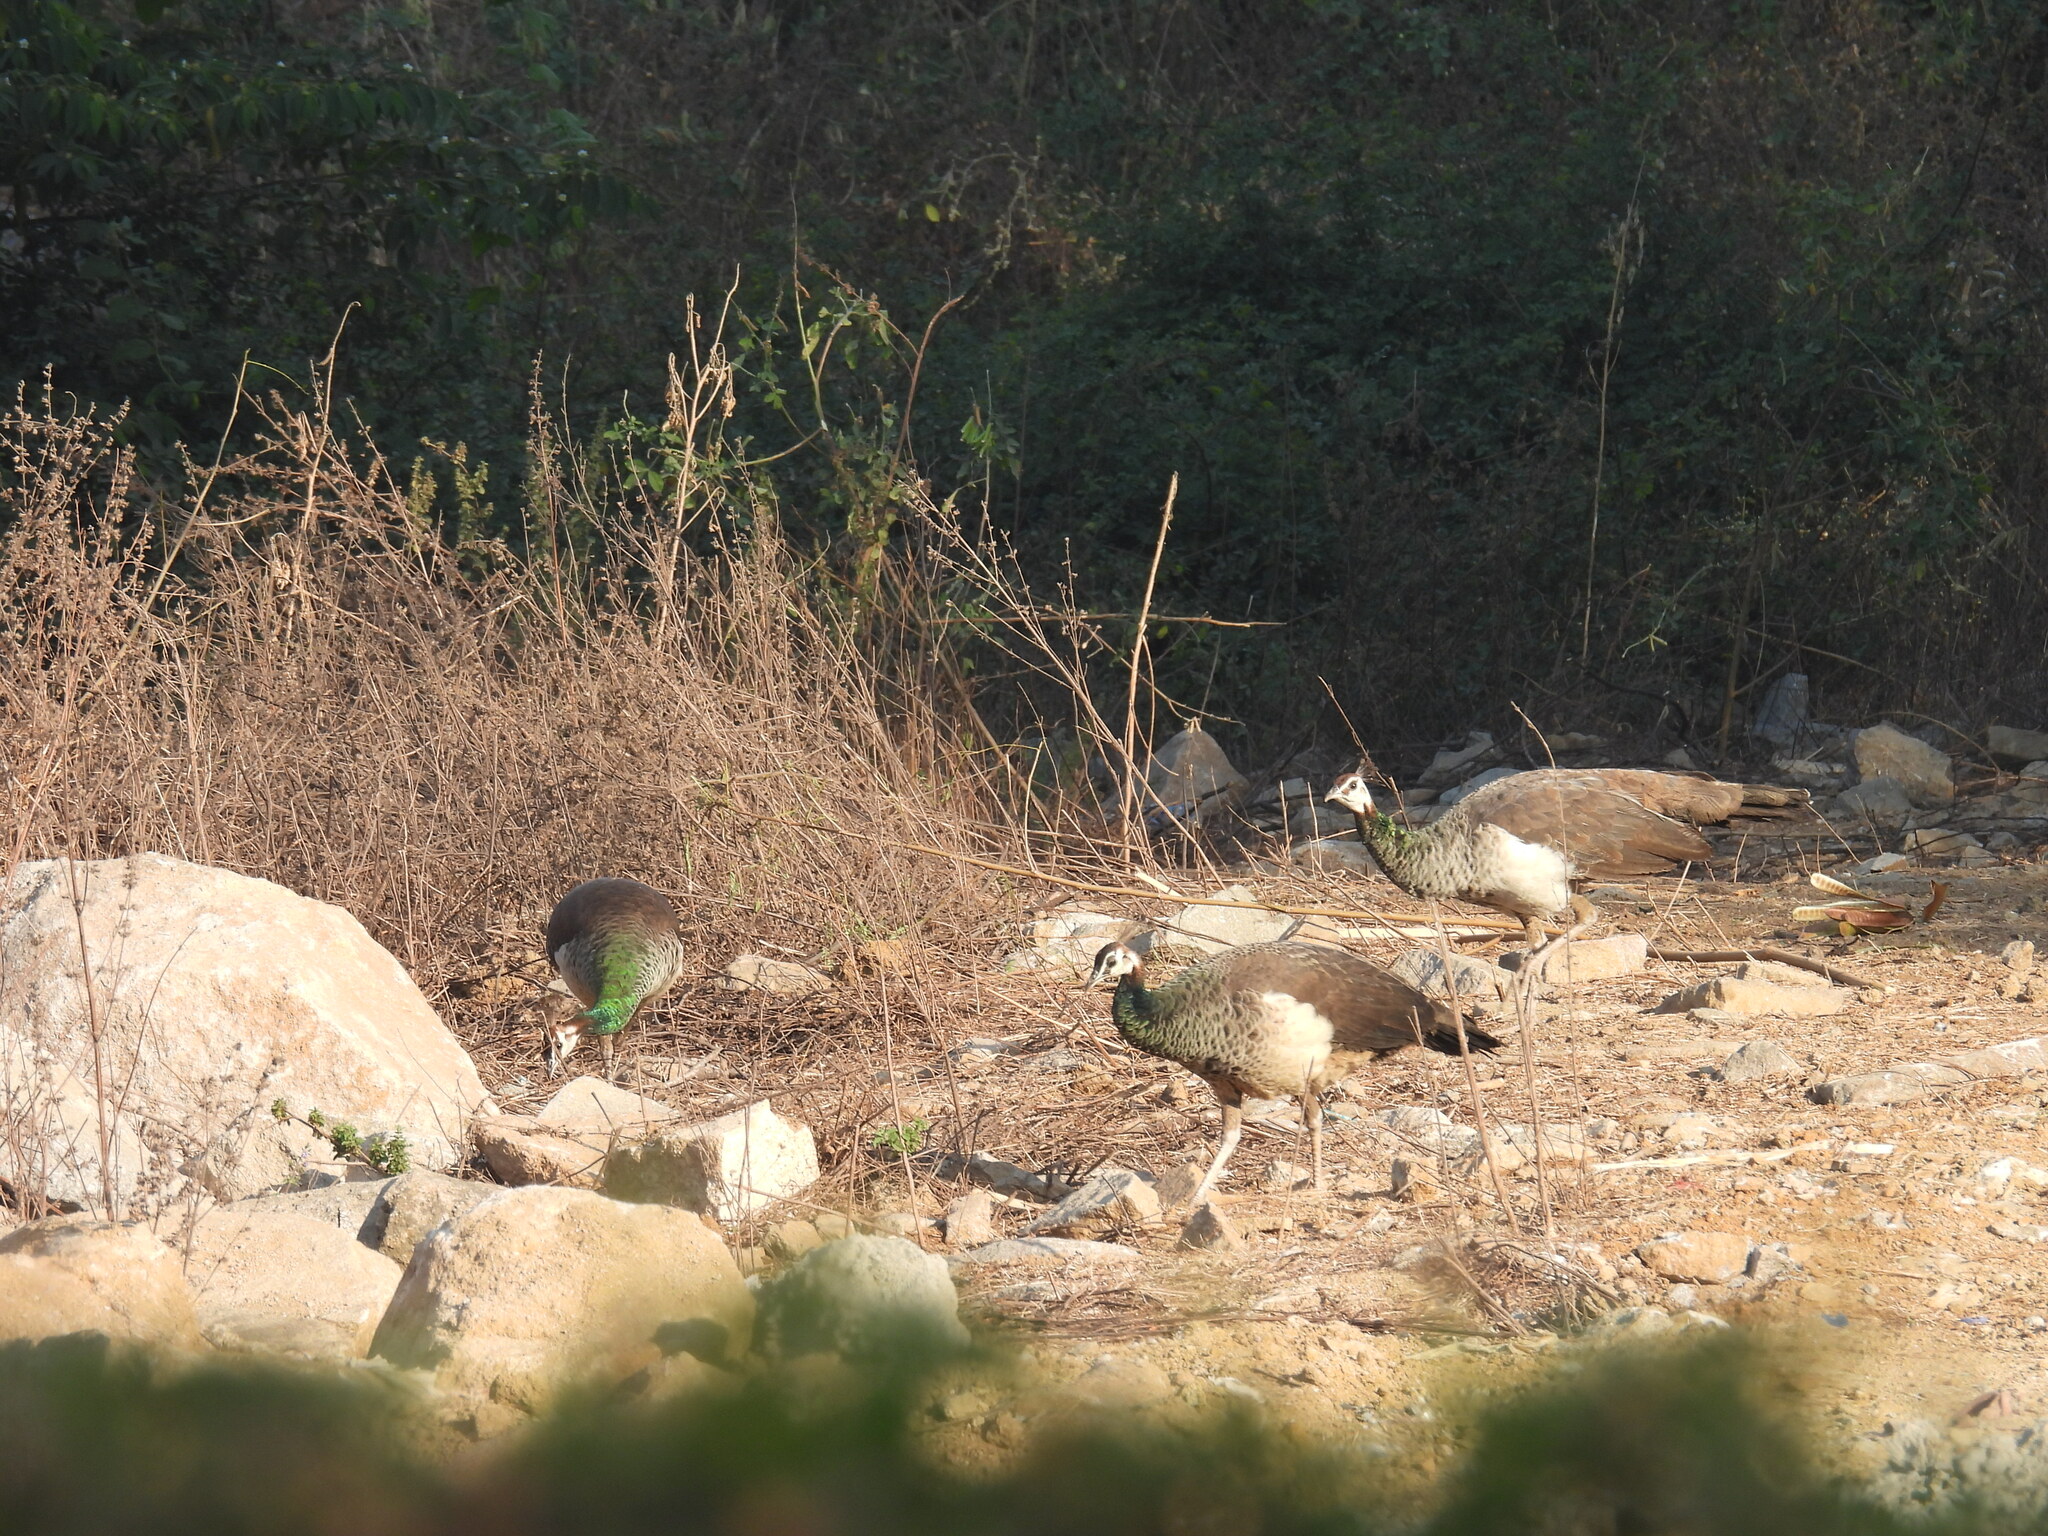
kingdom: Animalia
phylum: Chordata
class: Aves
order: Galliformes
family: Phasianidae
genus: Pavo
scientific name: Pavo cristatus
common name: Indian peafowl
